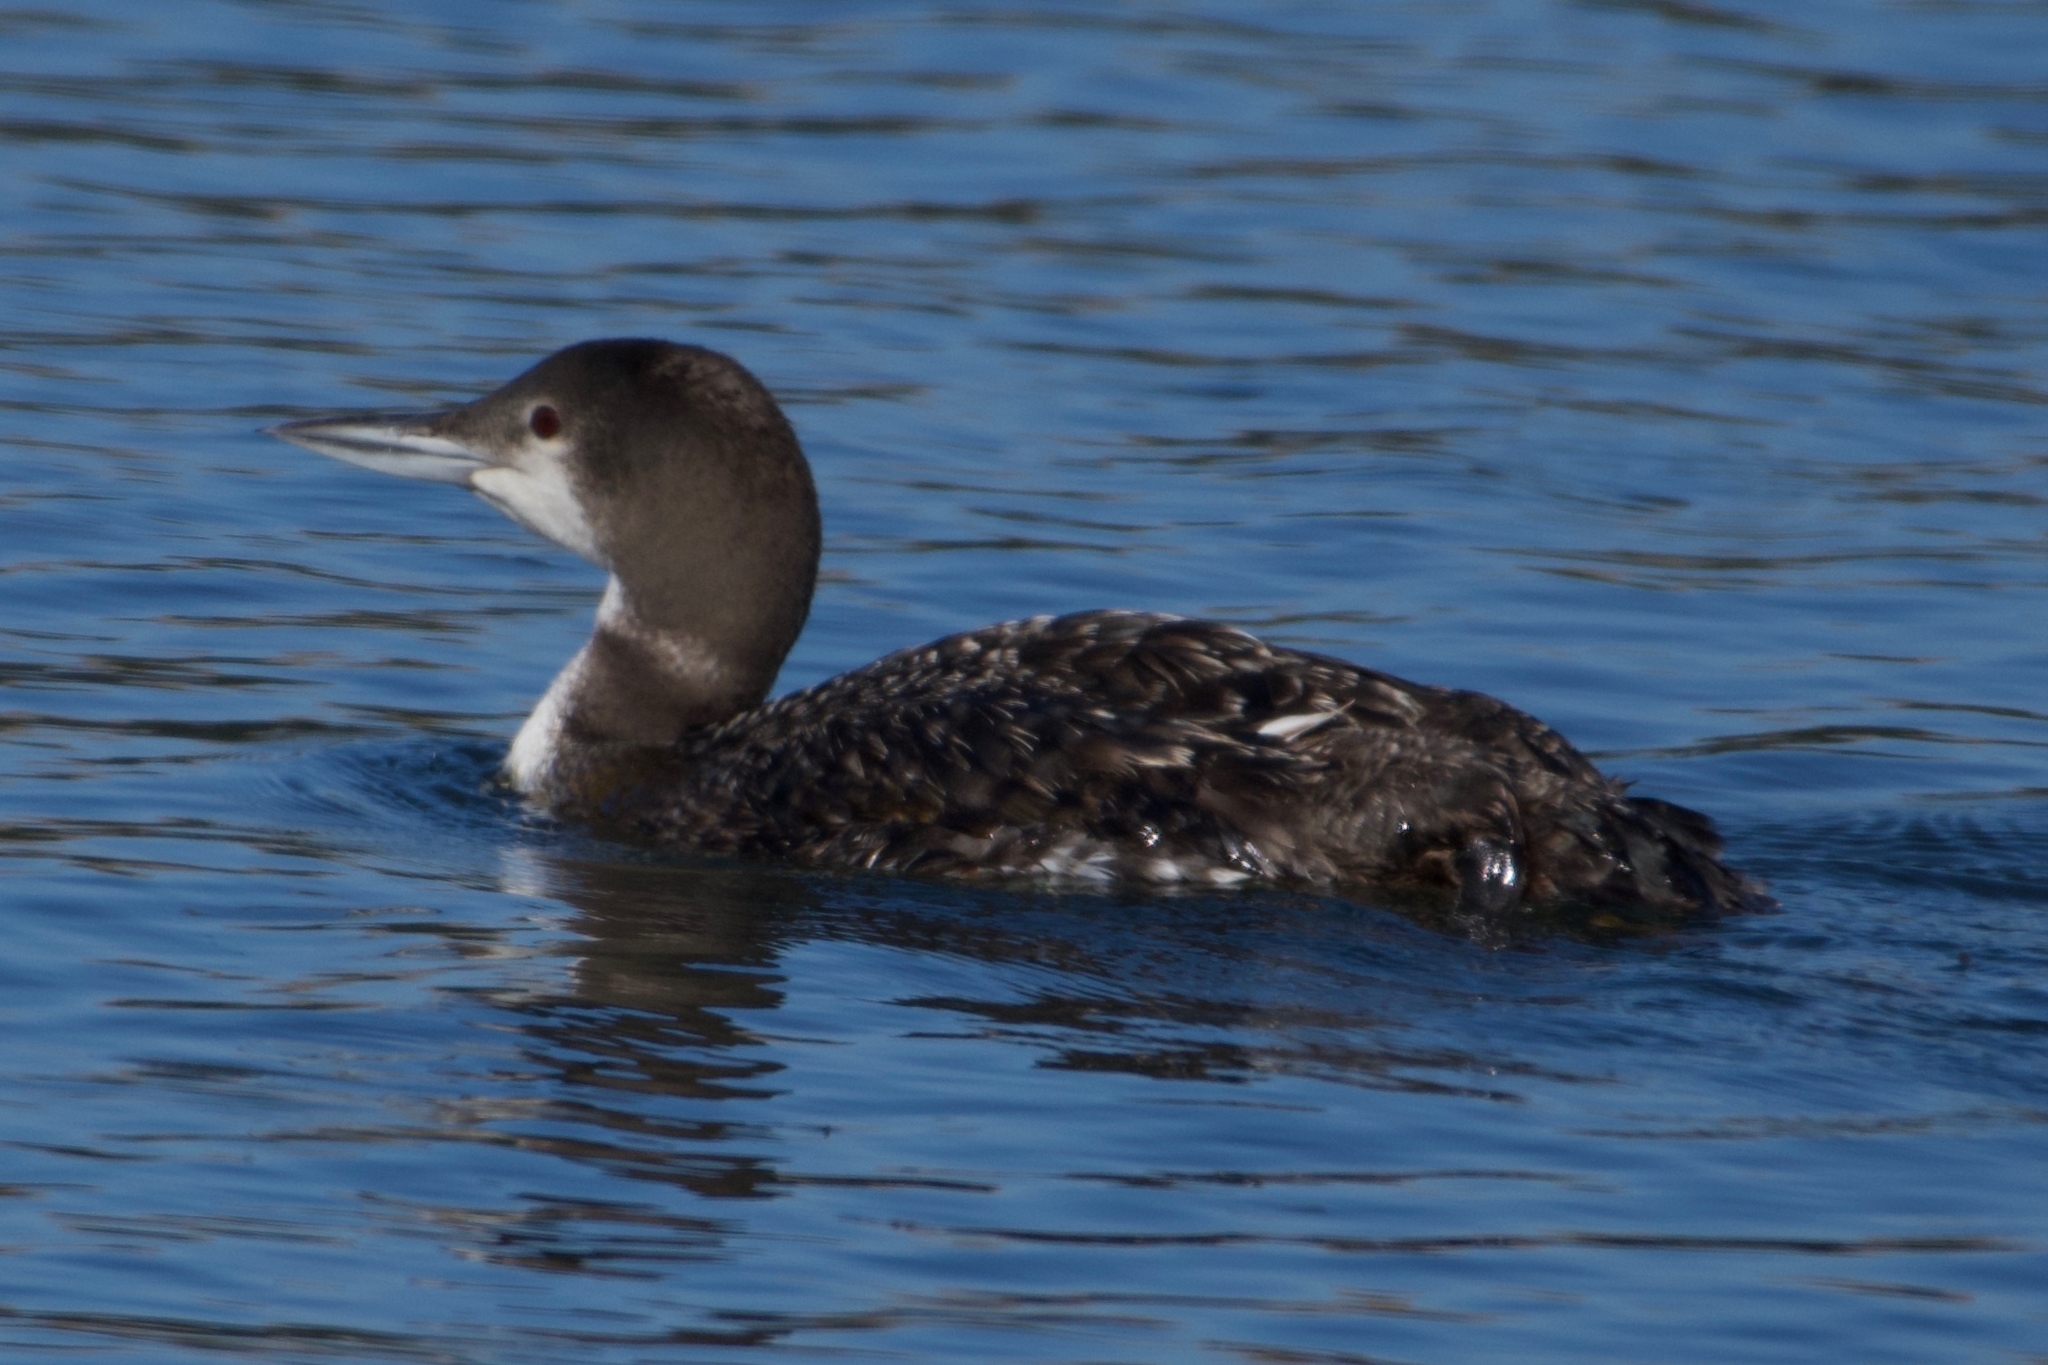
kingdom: Animalia
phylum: Chordata
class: Aves
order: Gaviiformes
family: Gaviidae
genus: Gavia
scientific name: Gavia immer
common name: Common loon
